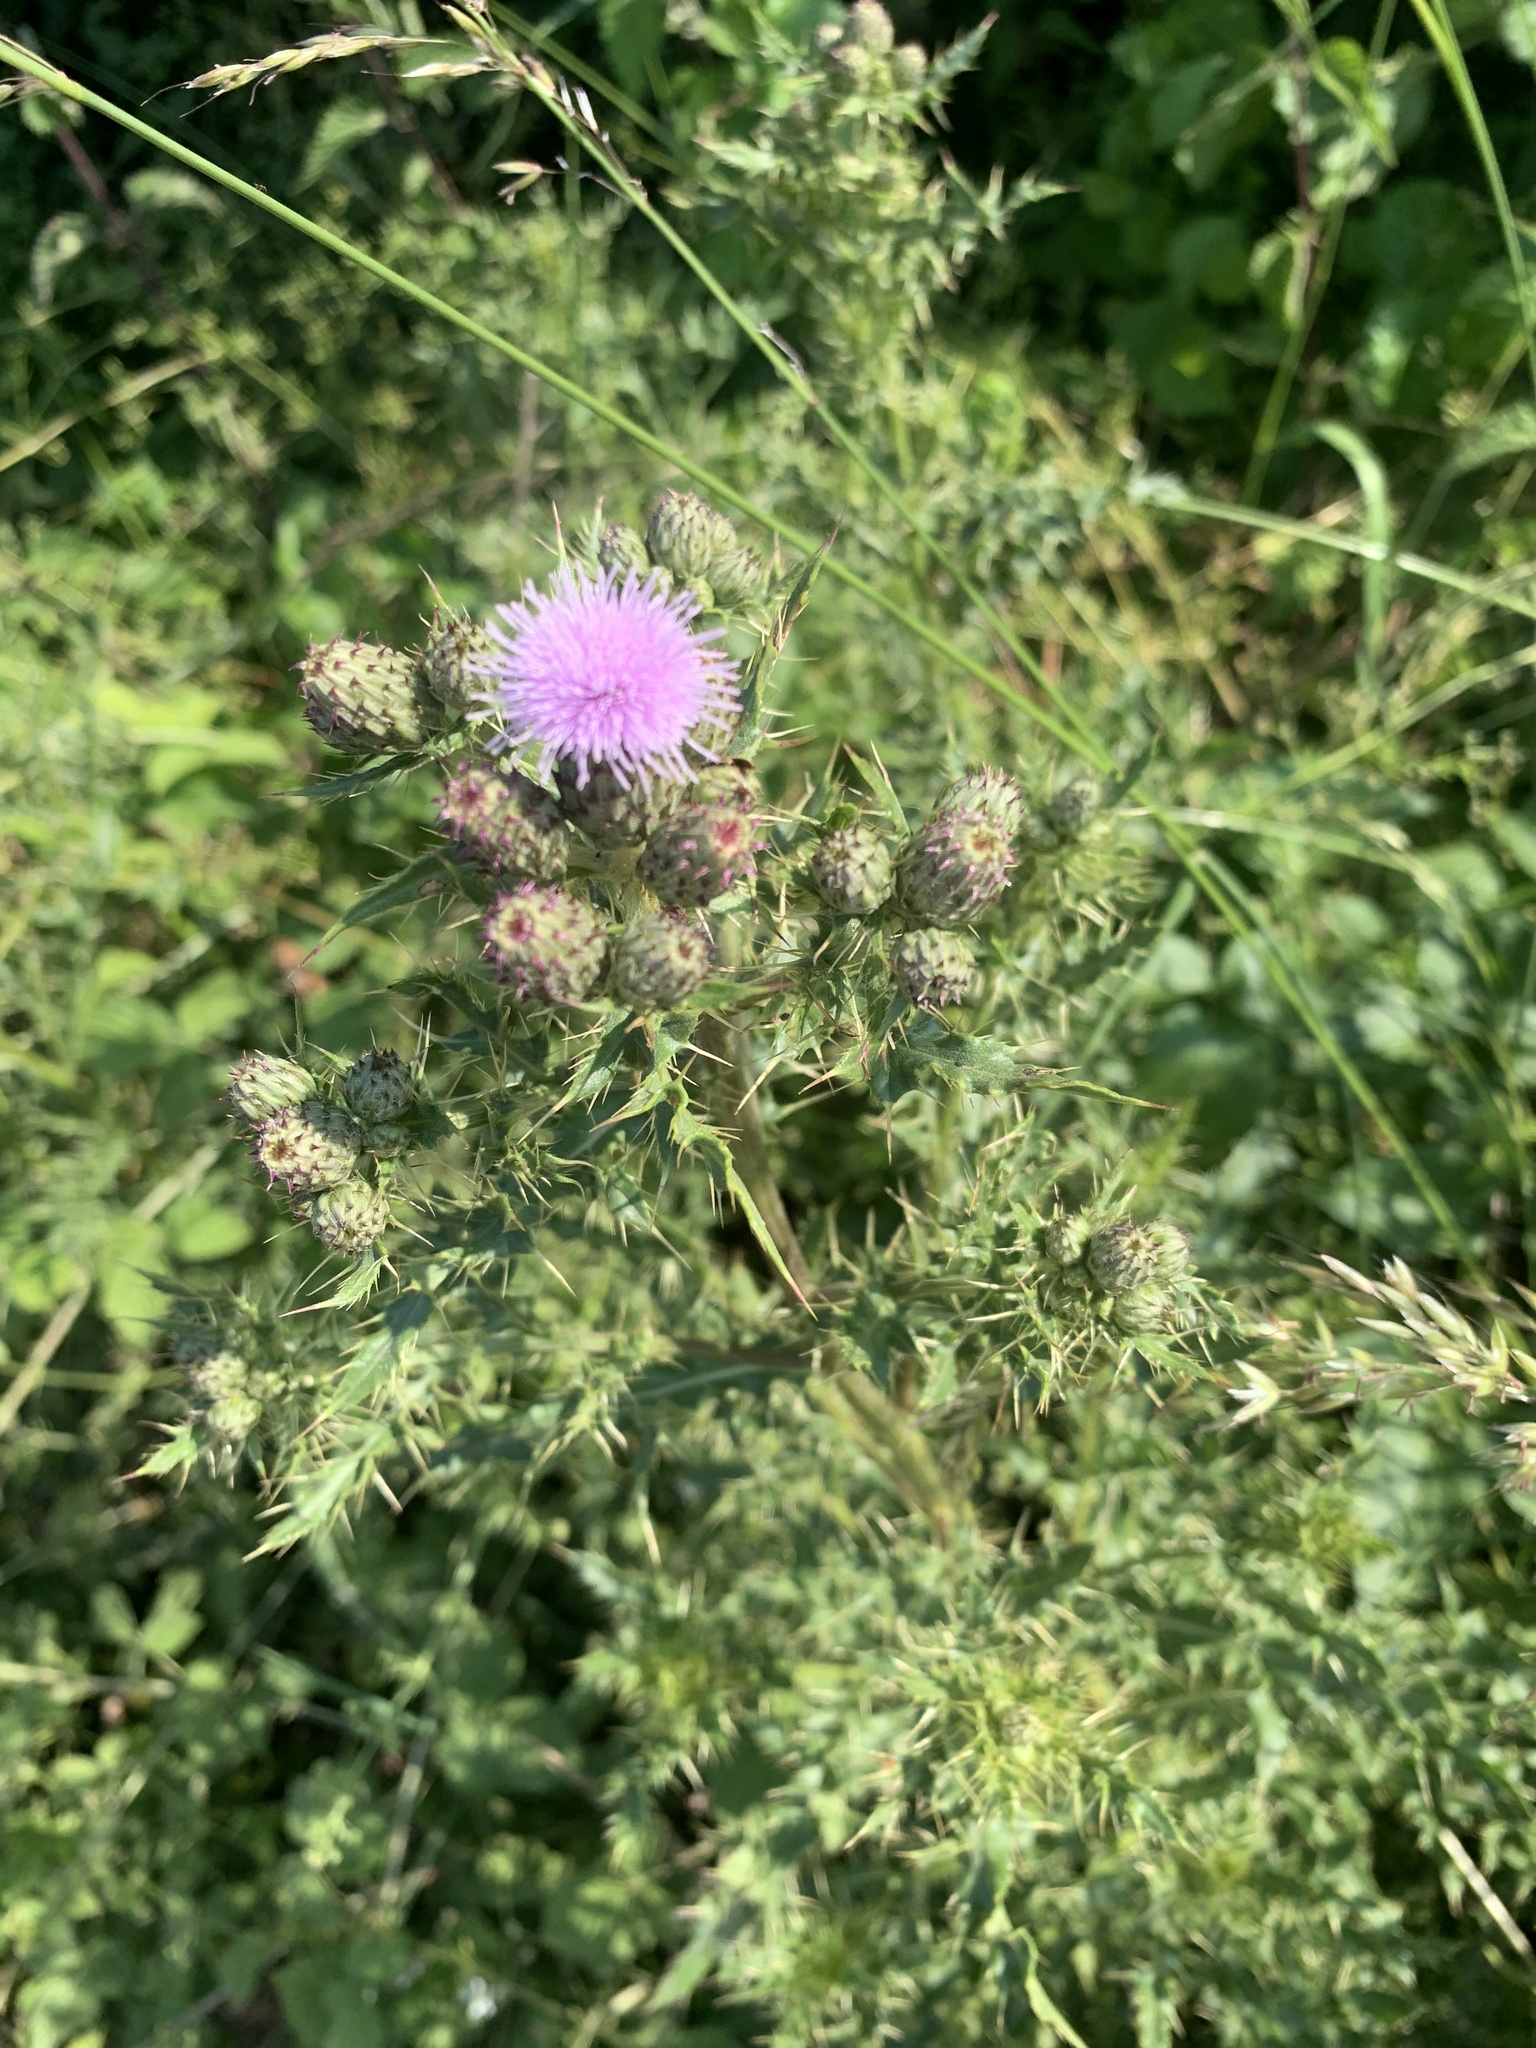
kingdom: Plantae
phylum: Tracheophyta
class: Magnoliopsida
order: Asterales
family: Asteraceae
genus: Cirsium
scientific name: Cirsium arvense
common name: Creeping thistle
